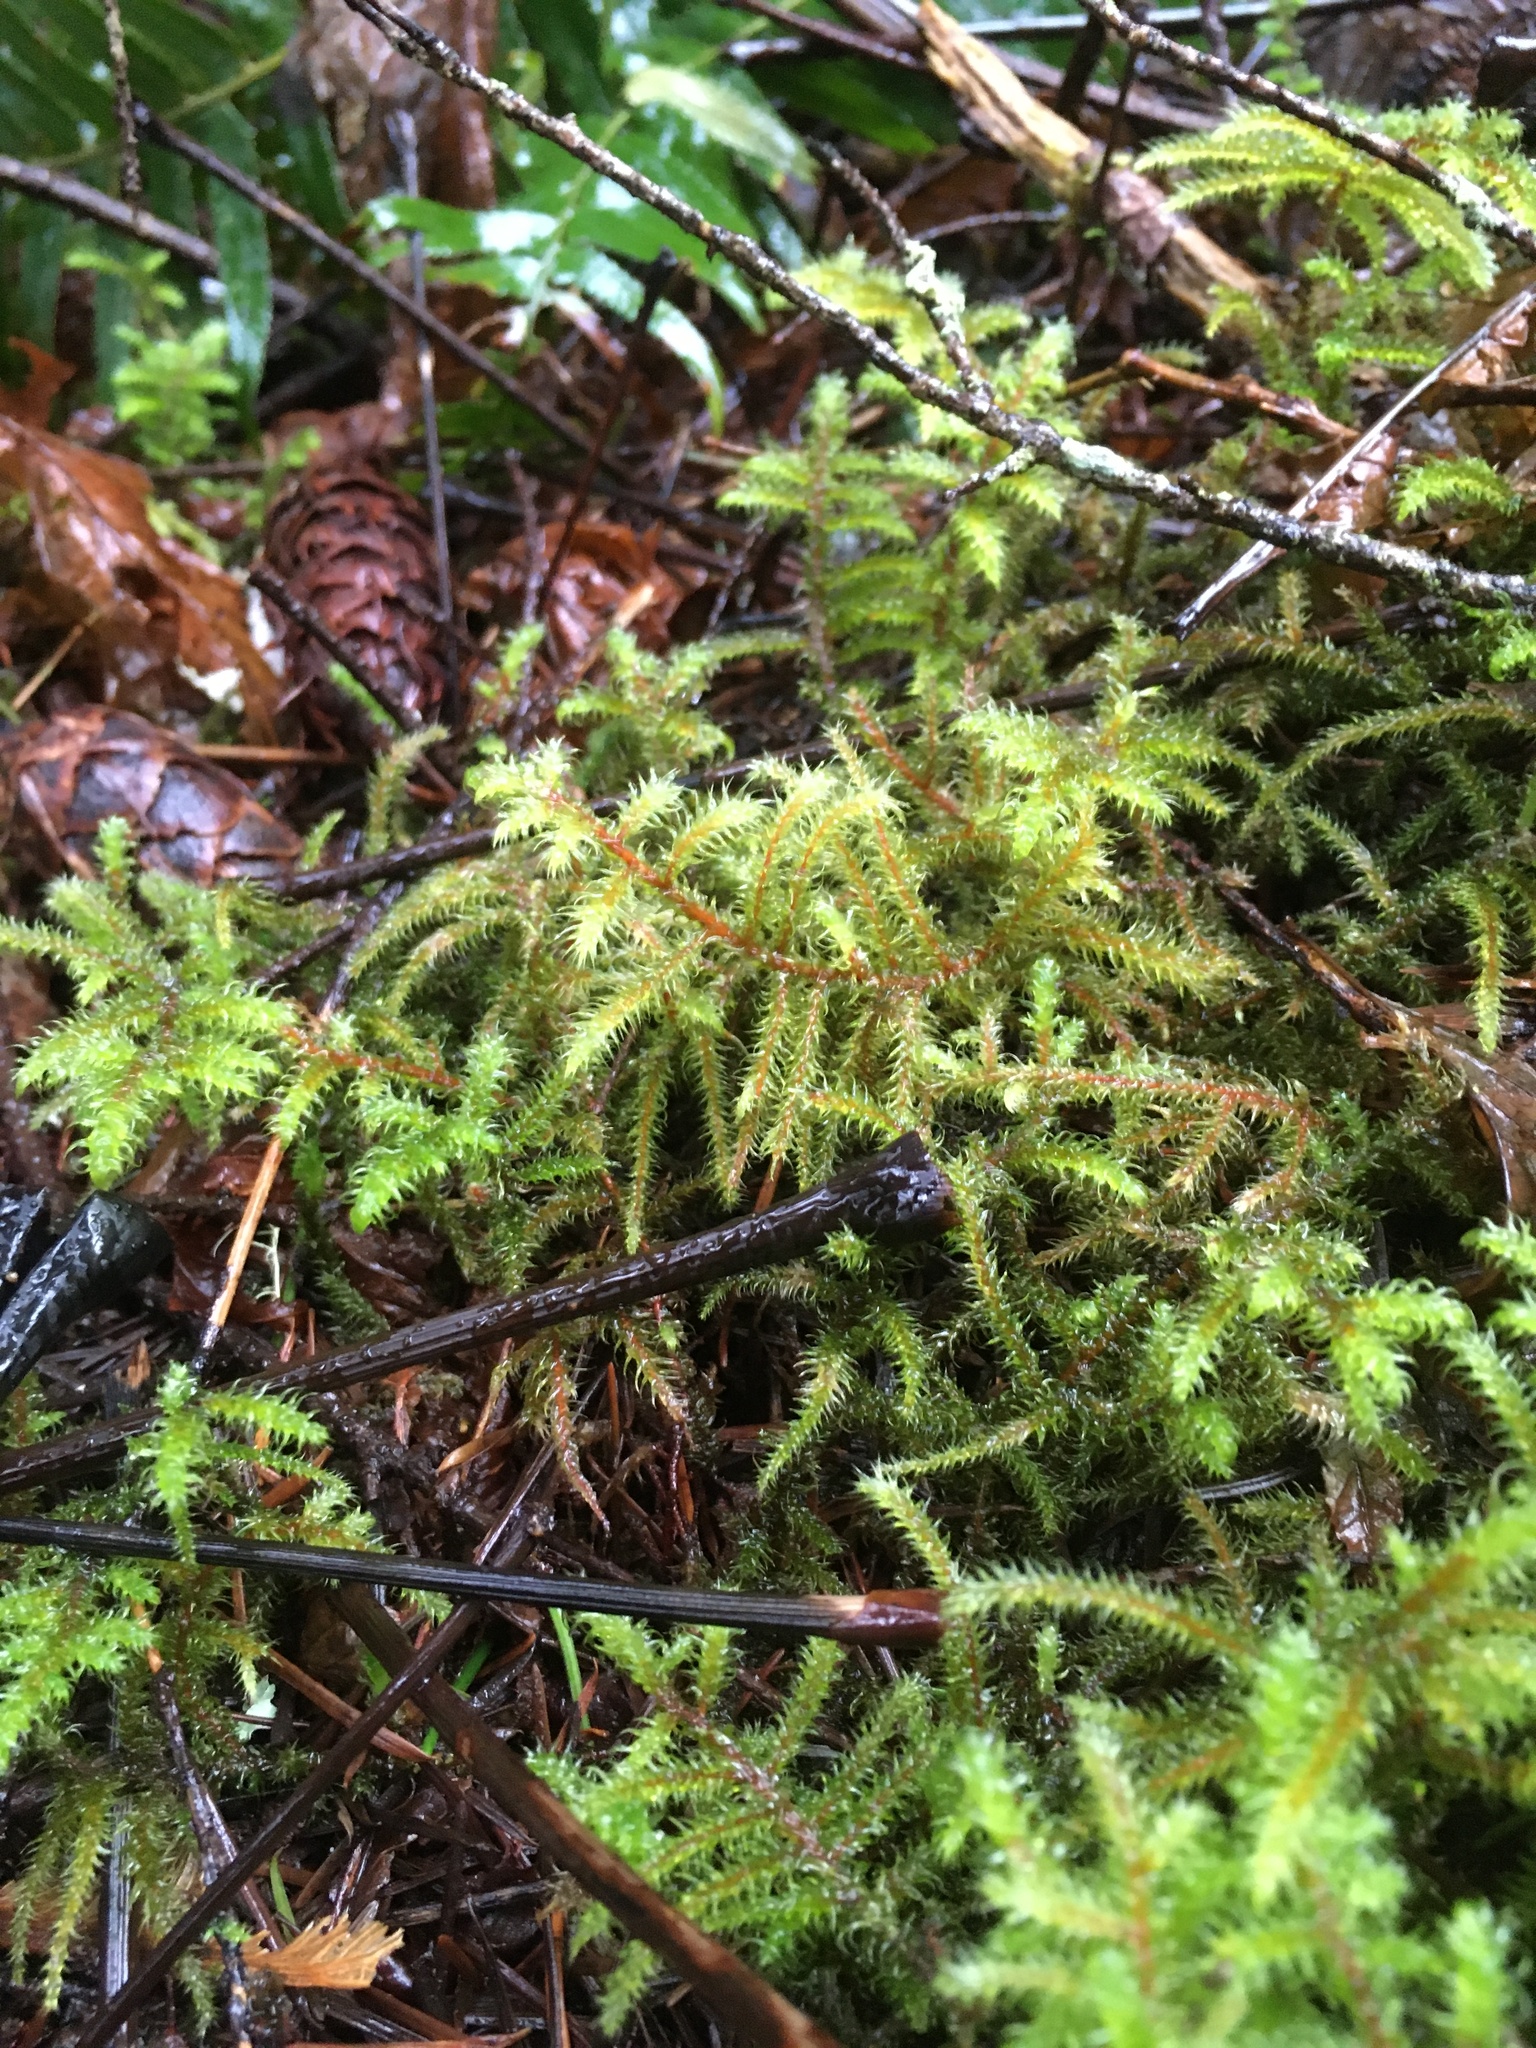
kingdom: Plantae
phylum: Bryophyta
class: Bryopsida
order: Hypnales
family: Hylocomiaceae
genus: Rhytidiadelphus
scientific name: Rhytidiadelphus loreus
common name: Lanky moss
